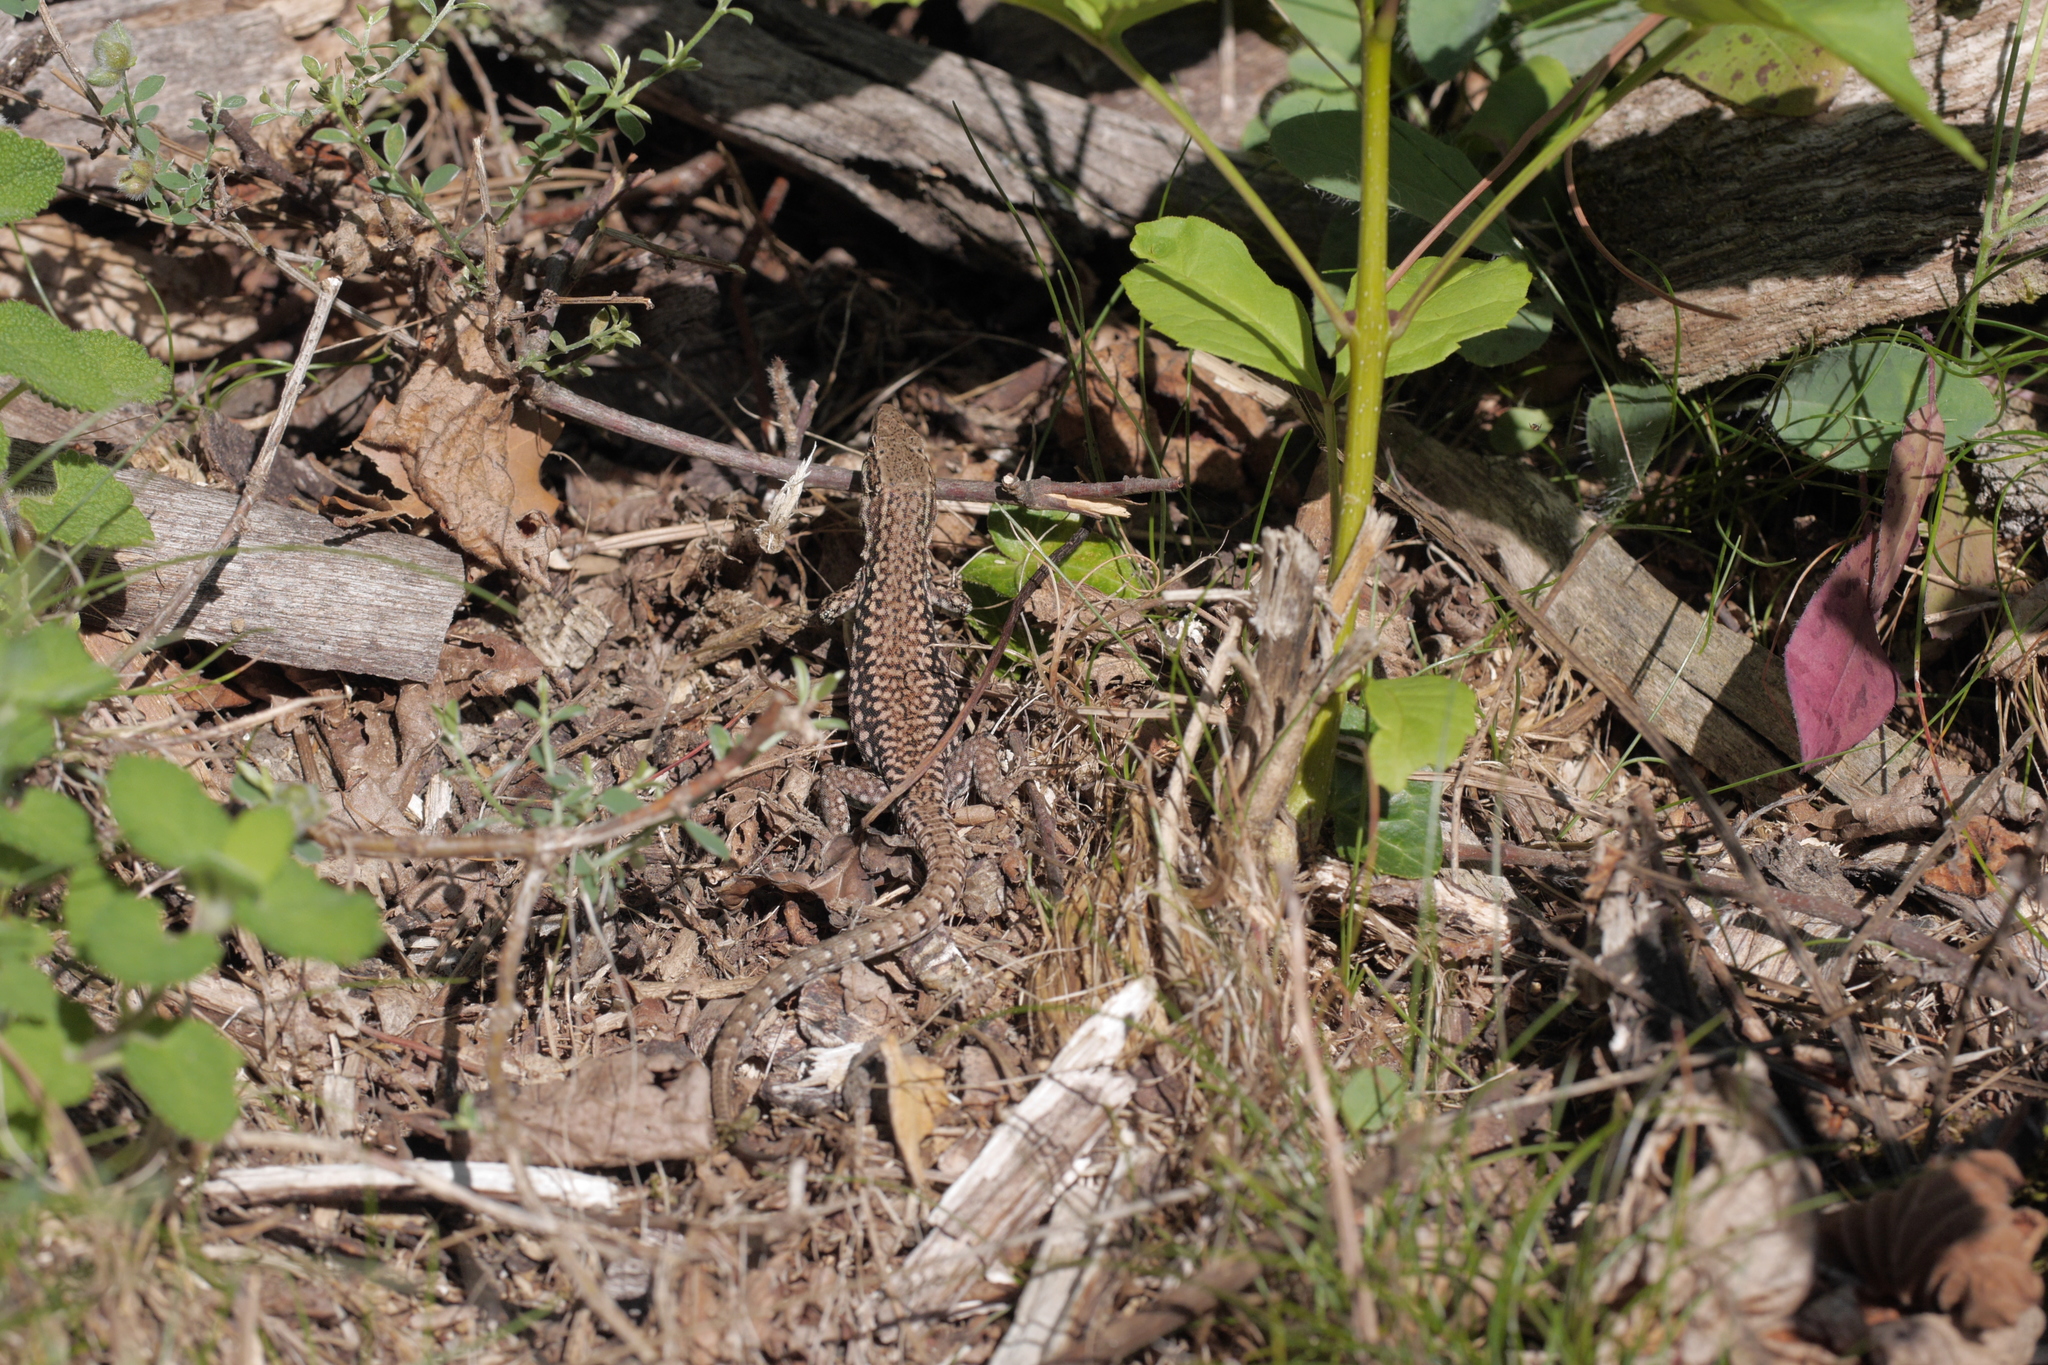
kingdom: Animalia
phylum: Chordata
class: Squamata
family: Lacertidae
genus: Podarcis
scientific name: Podarcis liolepis
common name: Catalonian wall lizard
